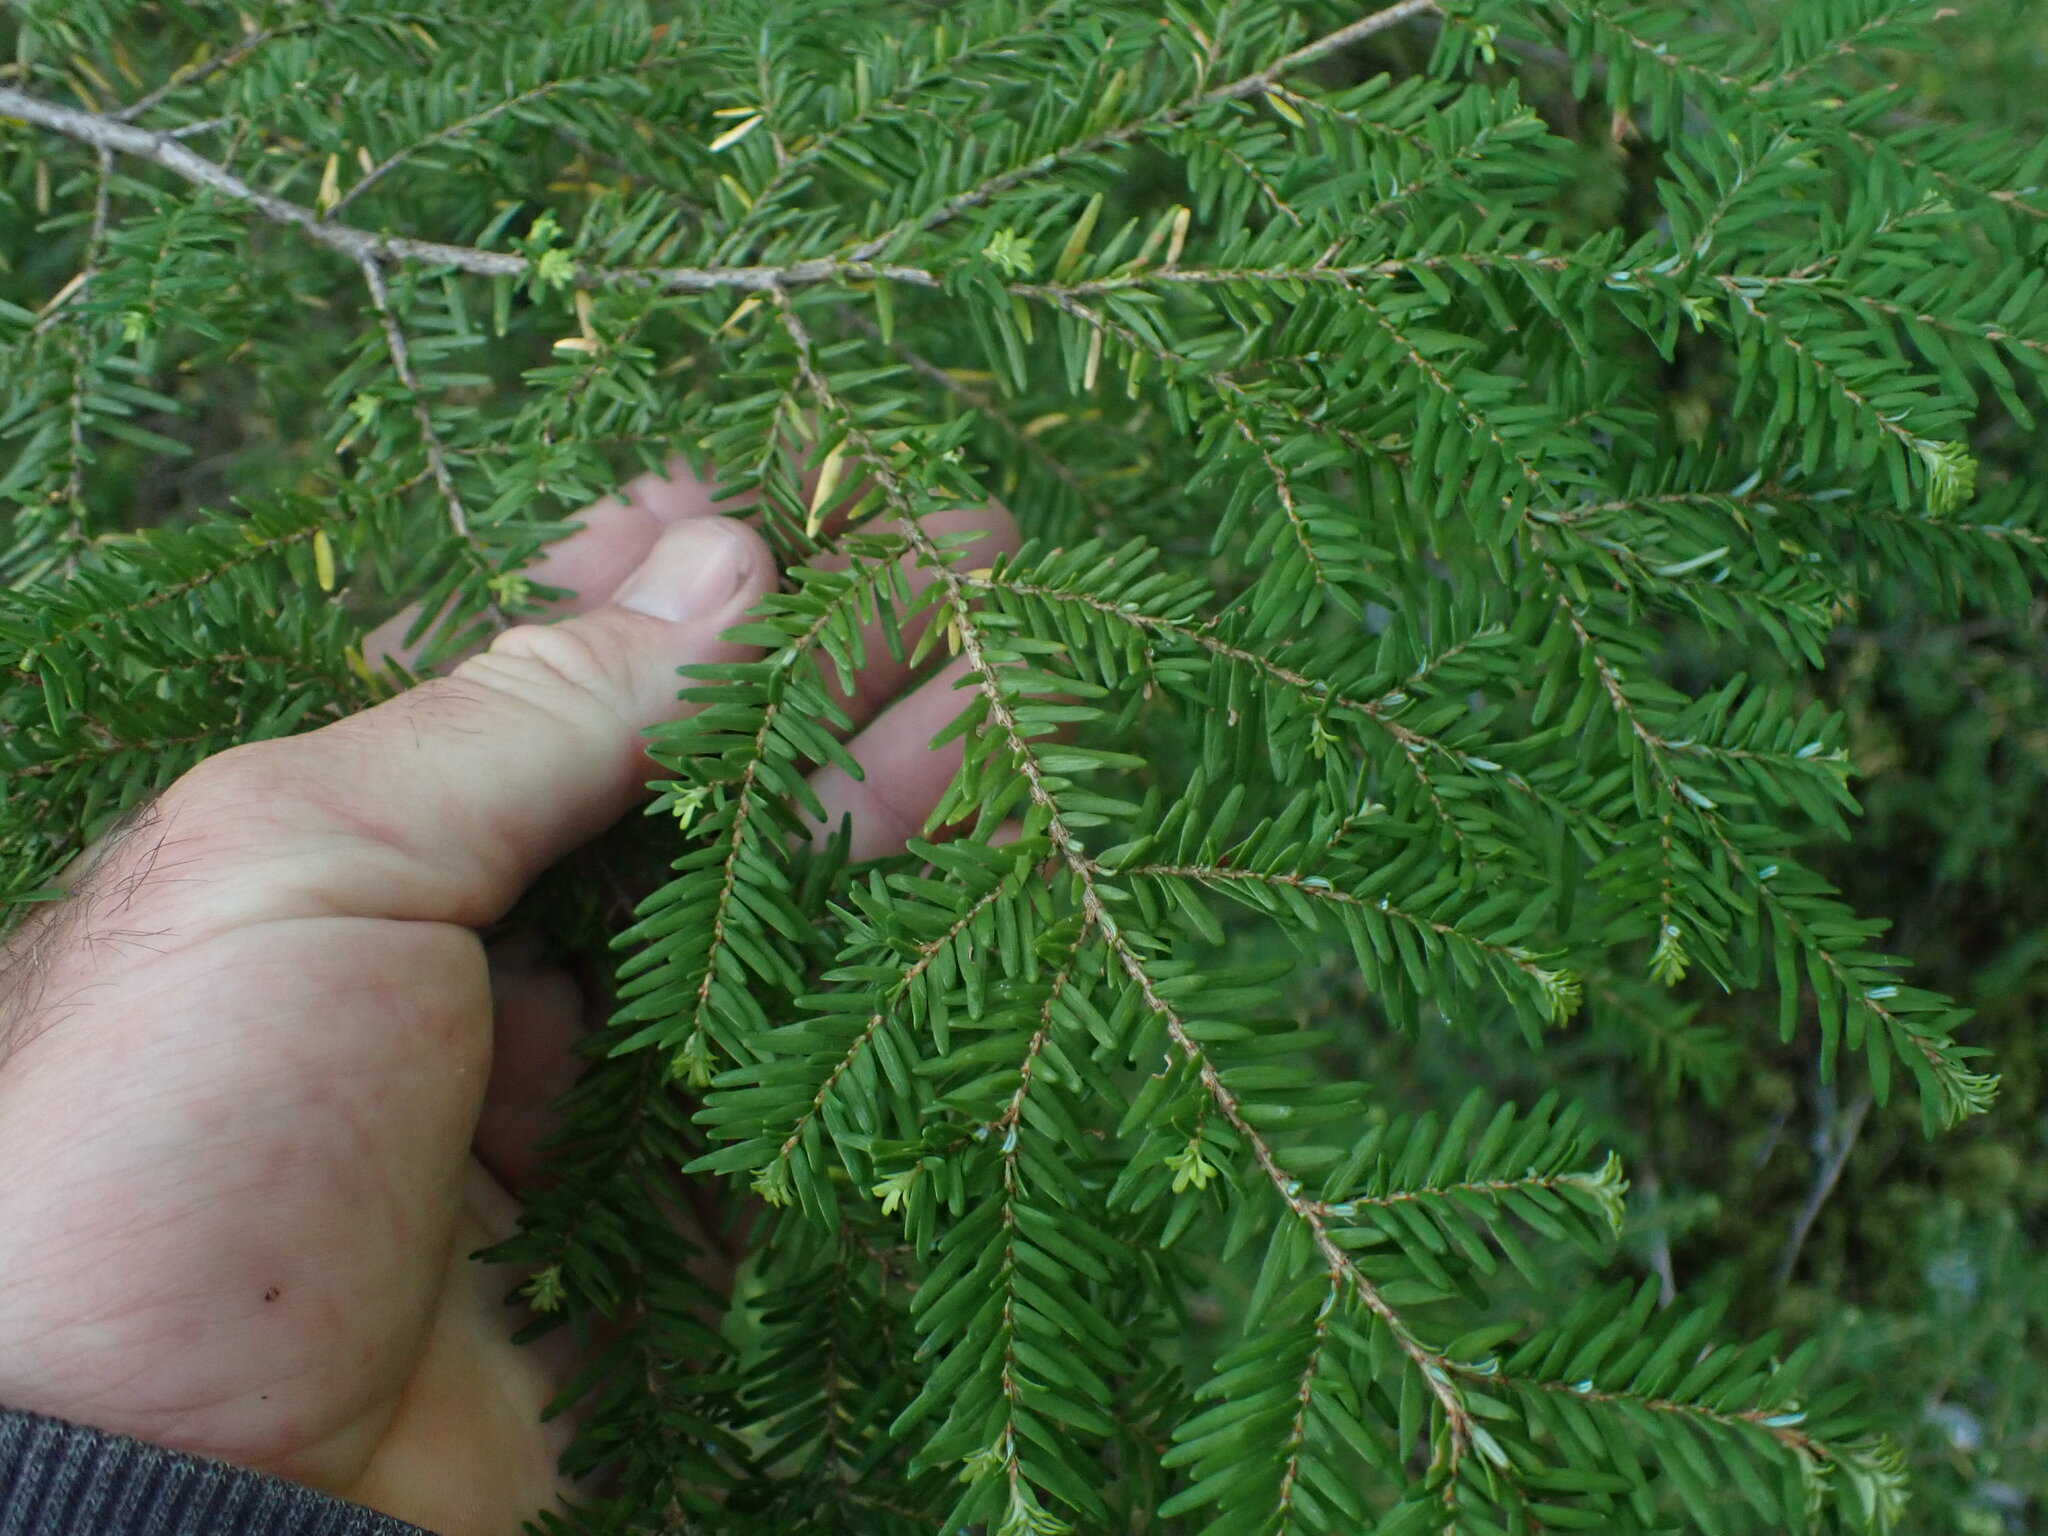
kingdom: Plantae
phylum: Tracheophyta
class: Pinopsida
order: Pinales
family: Pinaceae
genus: Tsuga
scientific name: Tsuga heterophylla
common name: Western hemlock
